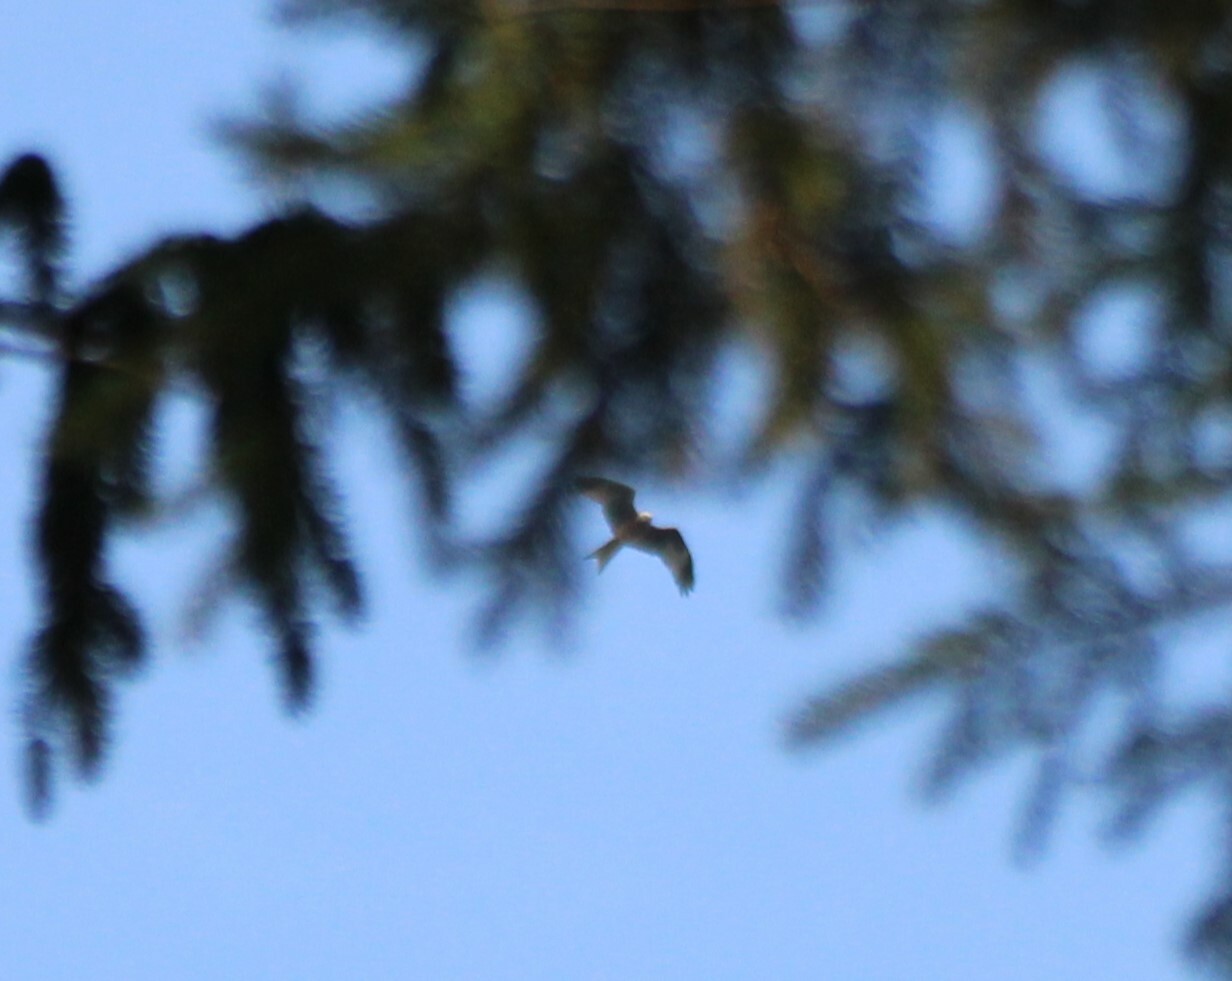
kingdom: Animalia
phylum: Chordata
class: Aves
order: Accipitriformes
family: Accipitridae
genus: Milvus
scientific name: Milvus milvus
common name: Red kite
